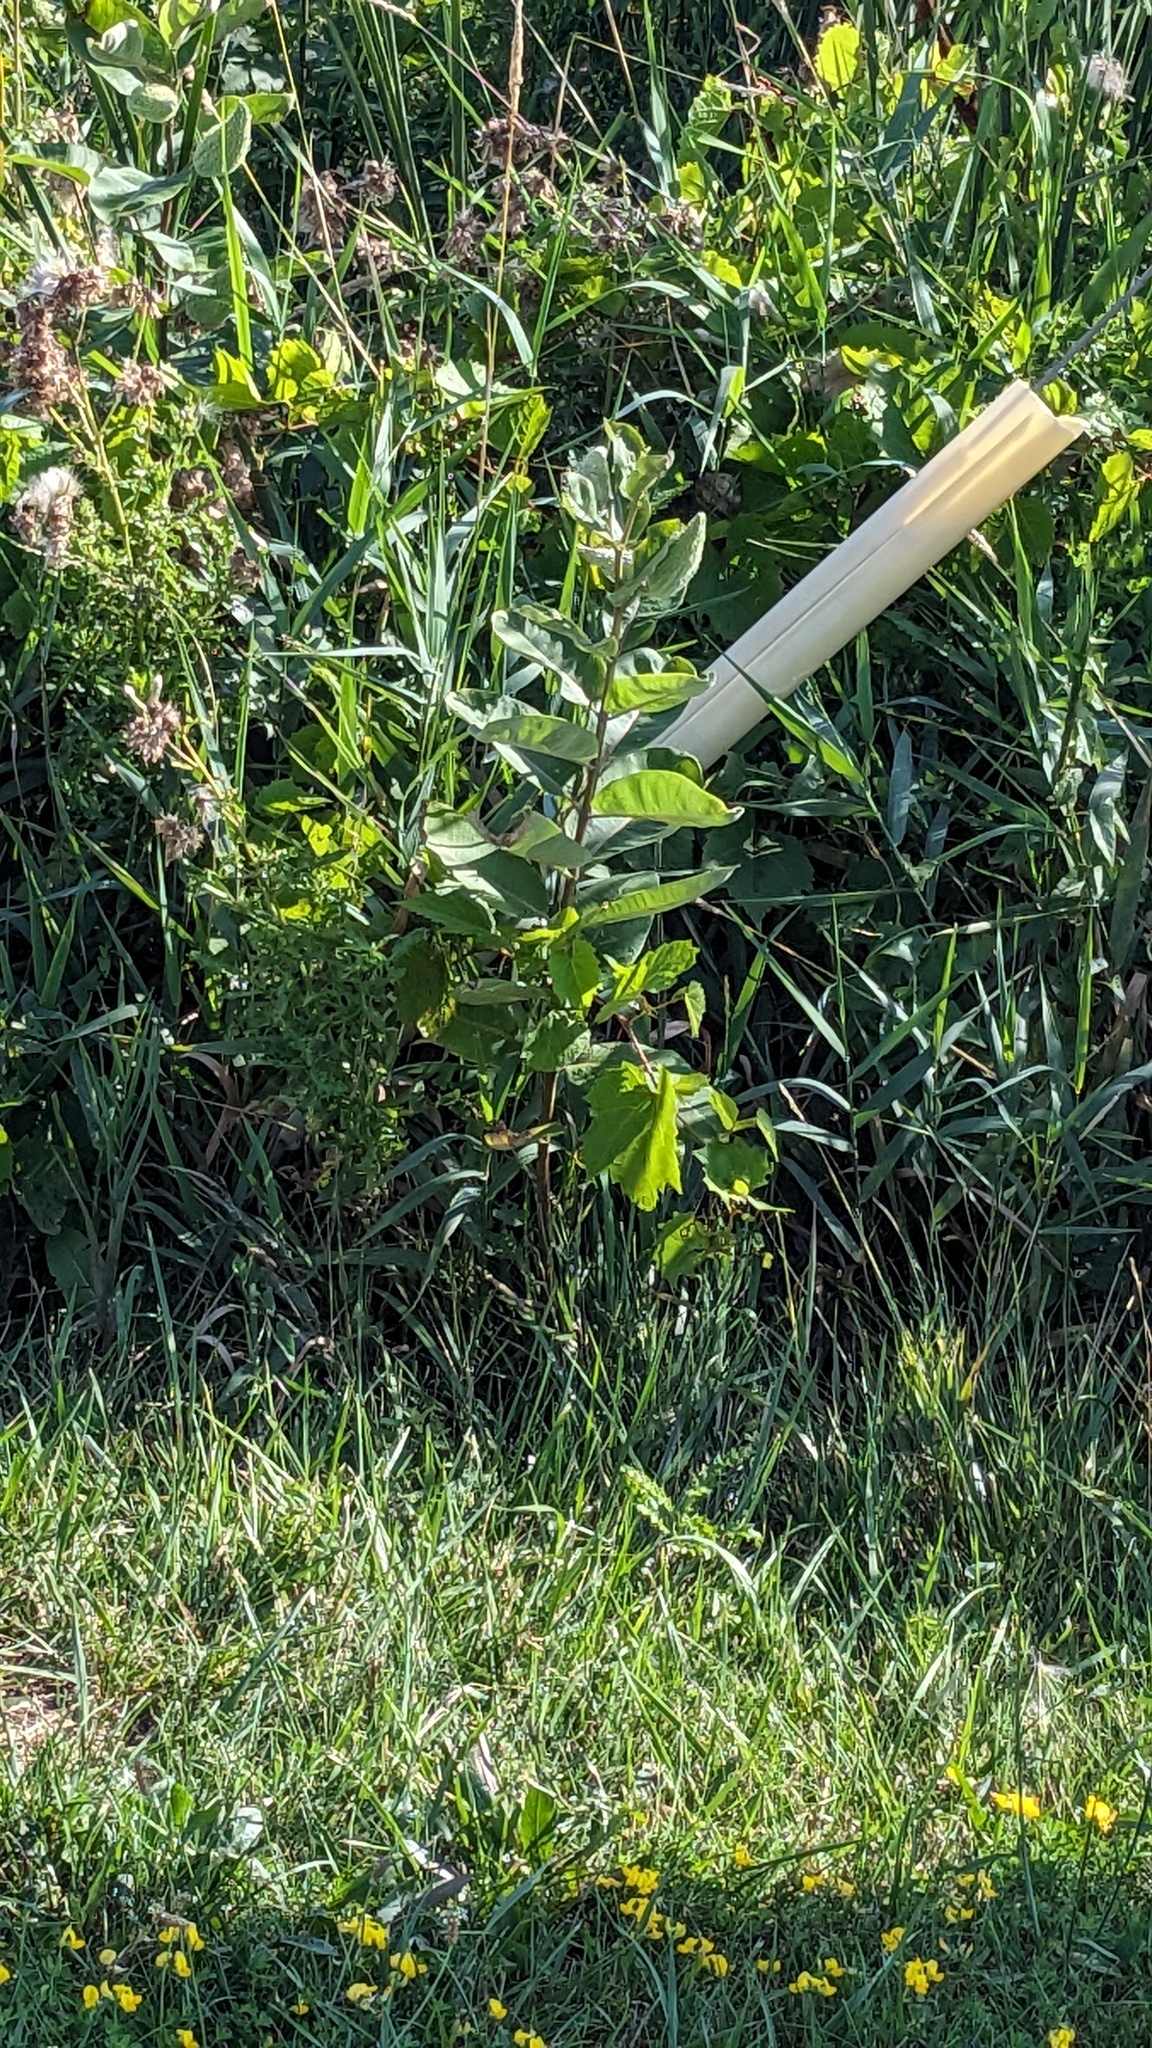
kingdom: Plantae
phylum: Tracheophyta
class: Magnoliopsida
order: Gentianales
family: Apocynaceae
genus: Asclepias
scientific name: Asclepias syriaca
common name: Common milkweed
